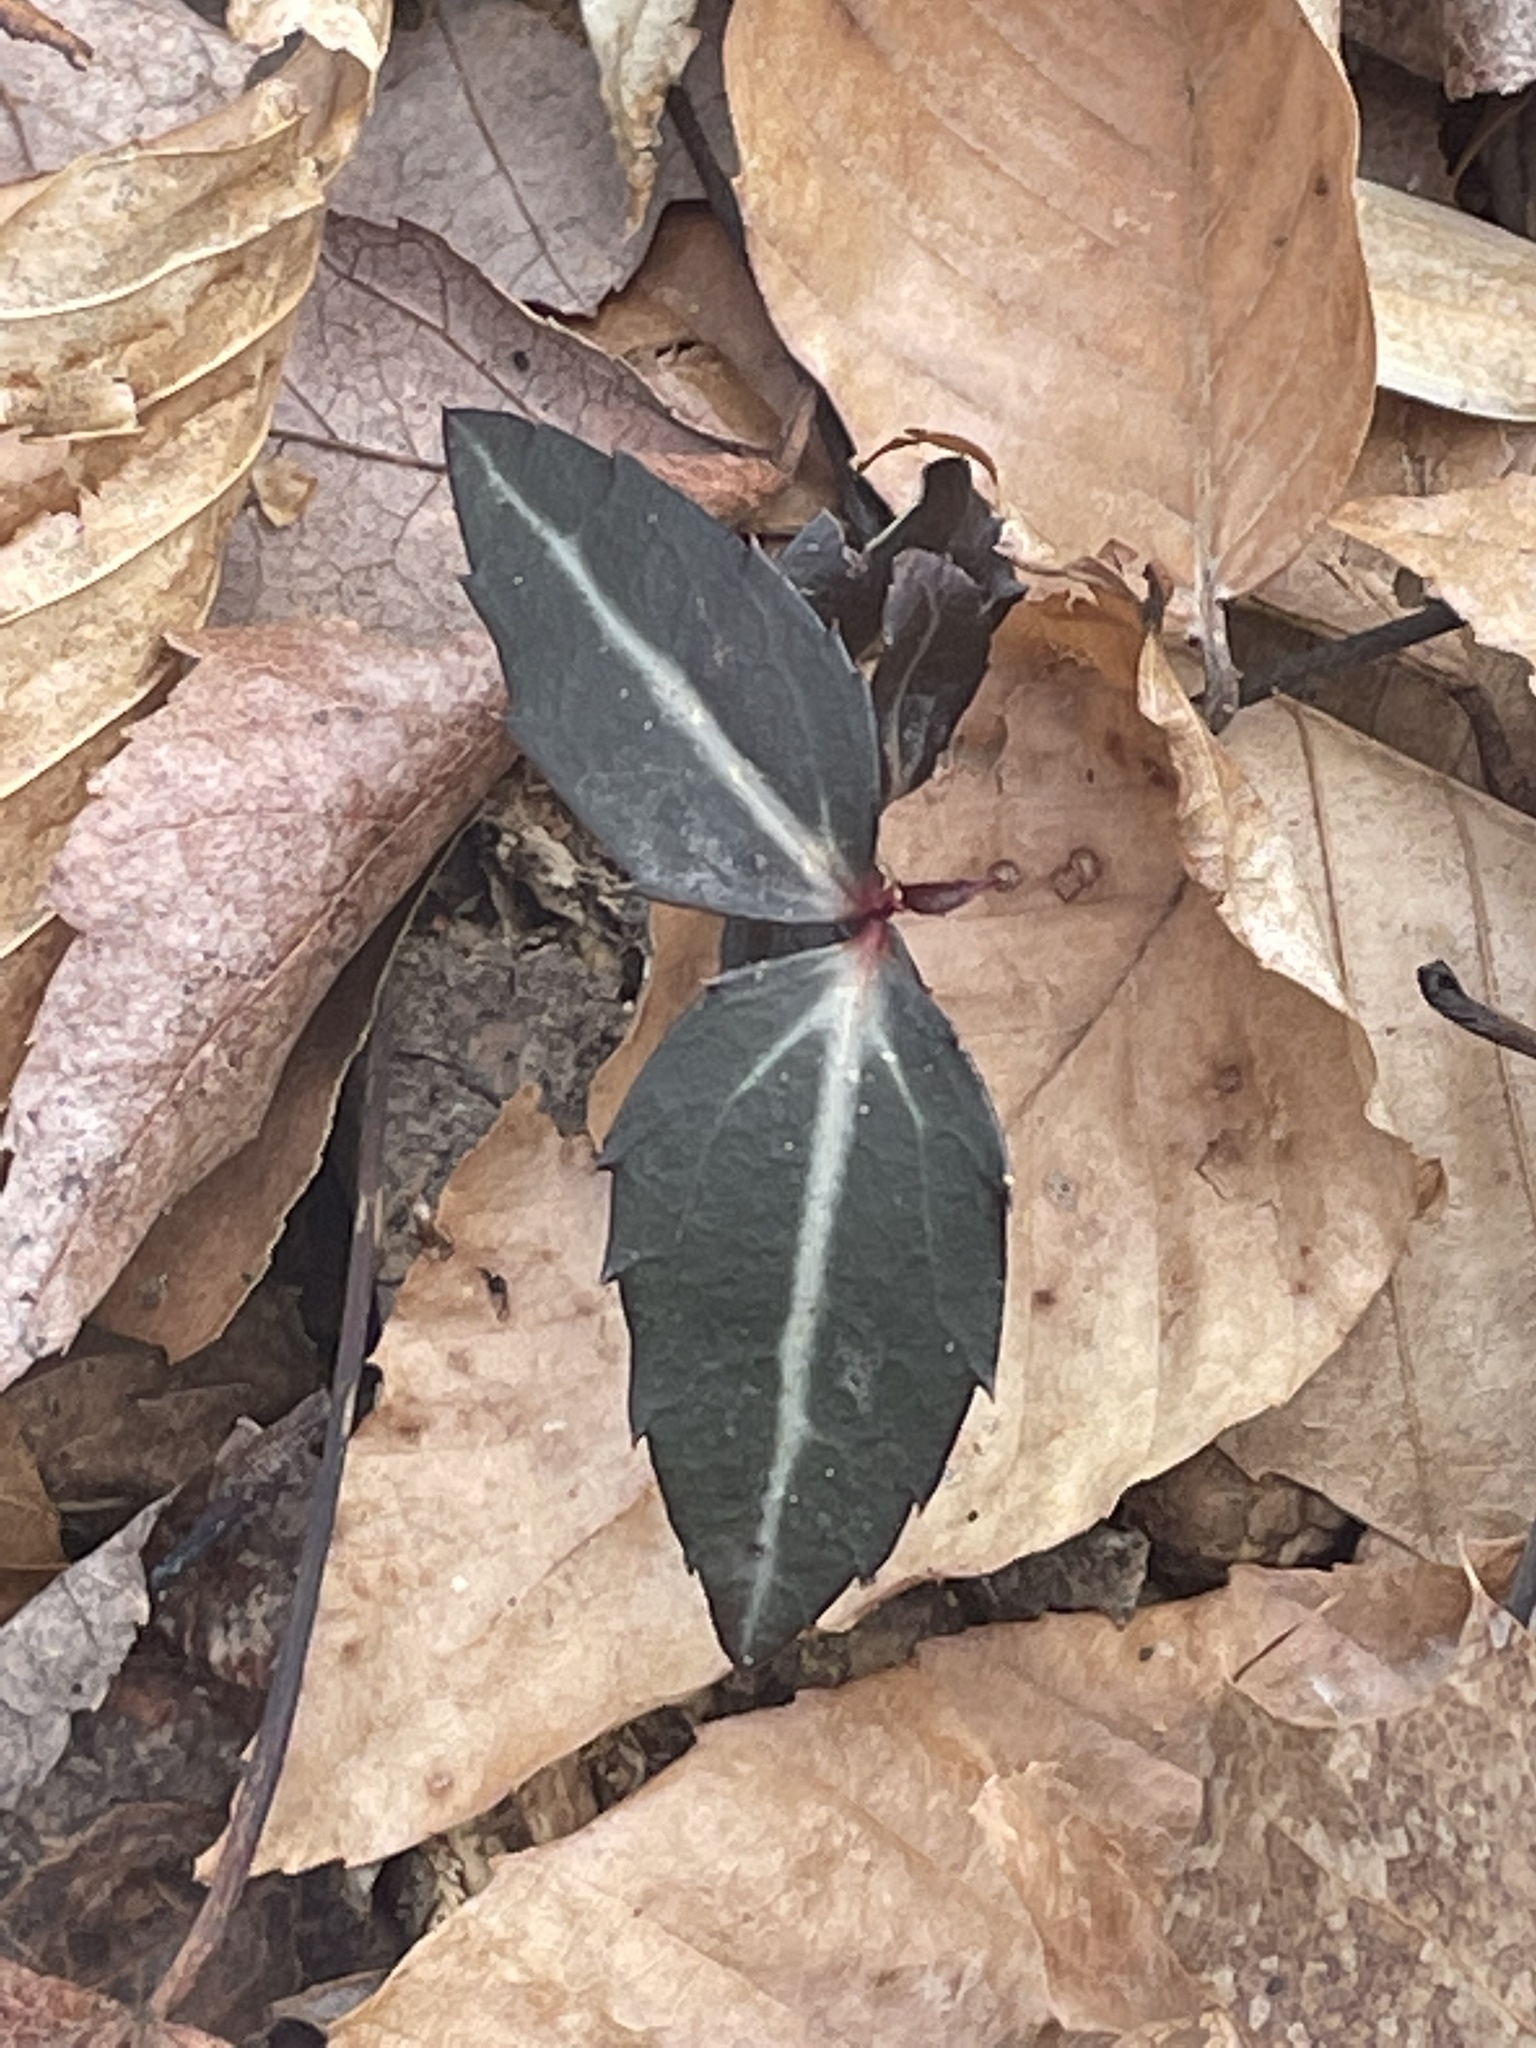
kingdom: Plantae
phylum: Tracheophyta
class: Magnoliopsida
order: Ericales
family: Ericaceae
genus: Chimaphila
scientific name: Chimaphila maculata
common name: Spotted pipsissewa
